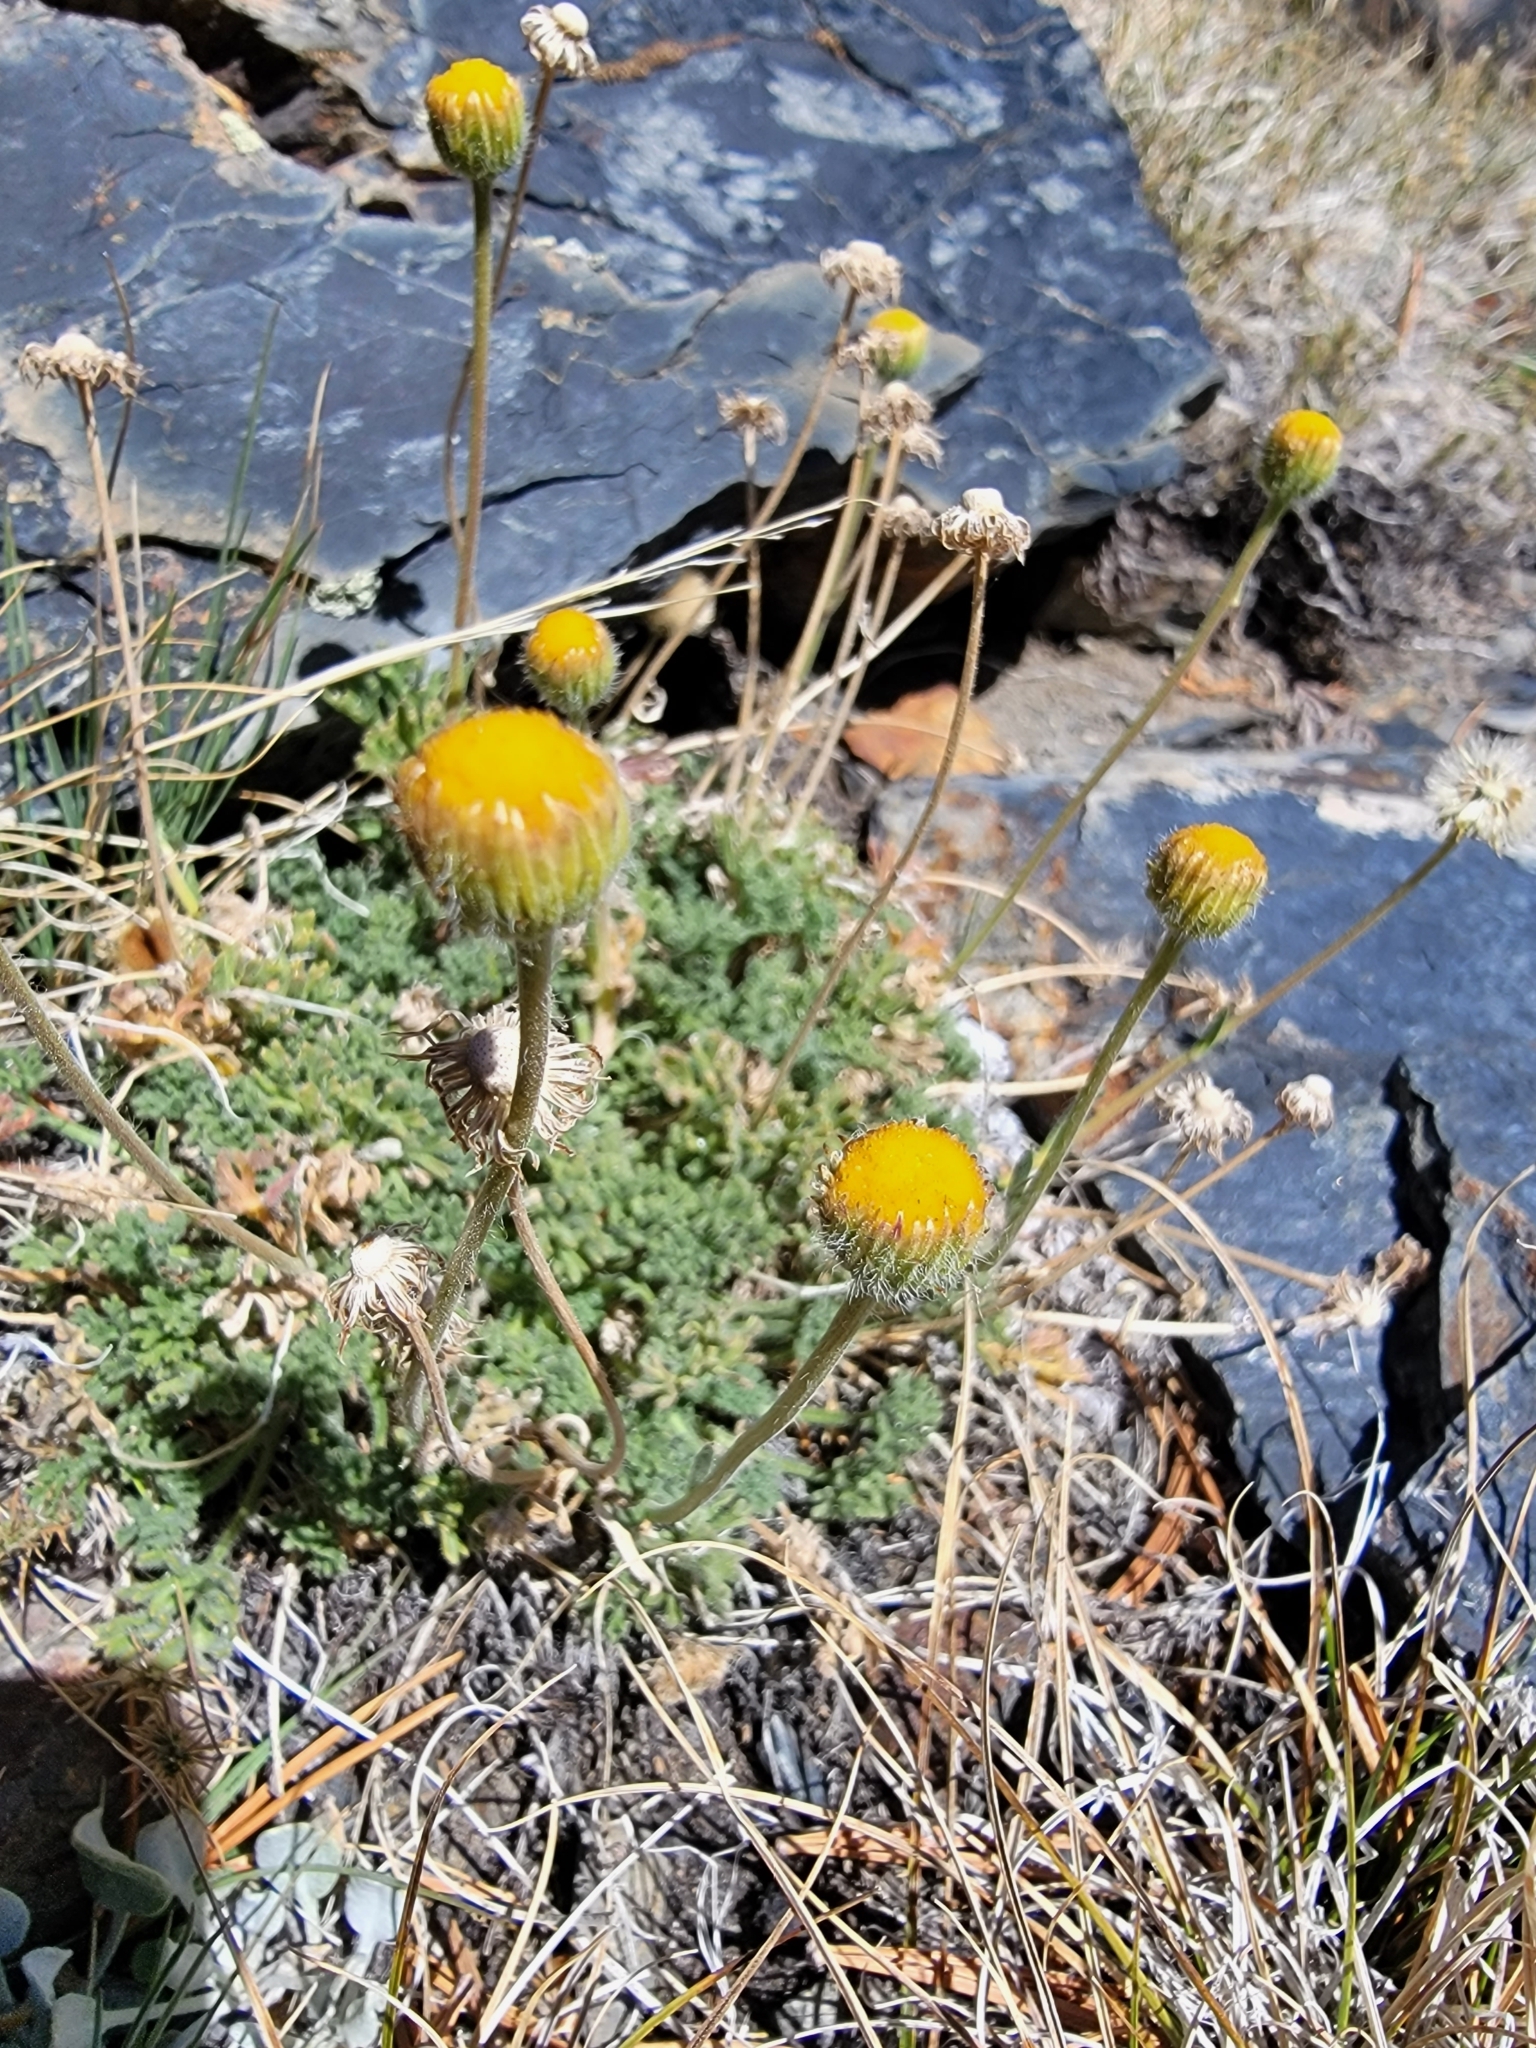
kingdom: Plantae
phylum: Tracheophyta
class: Magnoliopsida
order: Asterales
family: Asteraceae
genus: Erigeron
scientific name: Erigeron compositus
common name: Dwarf mountain fleabane
